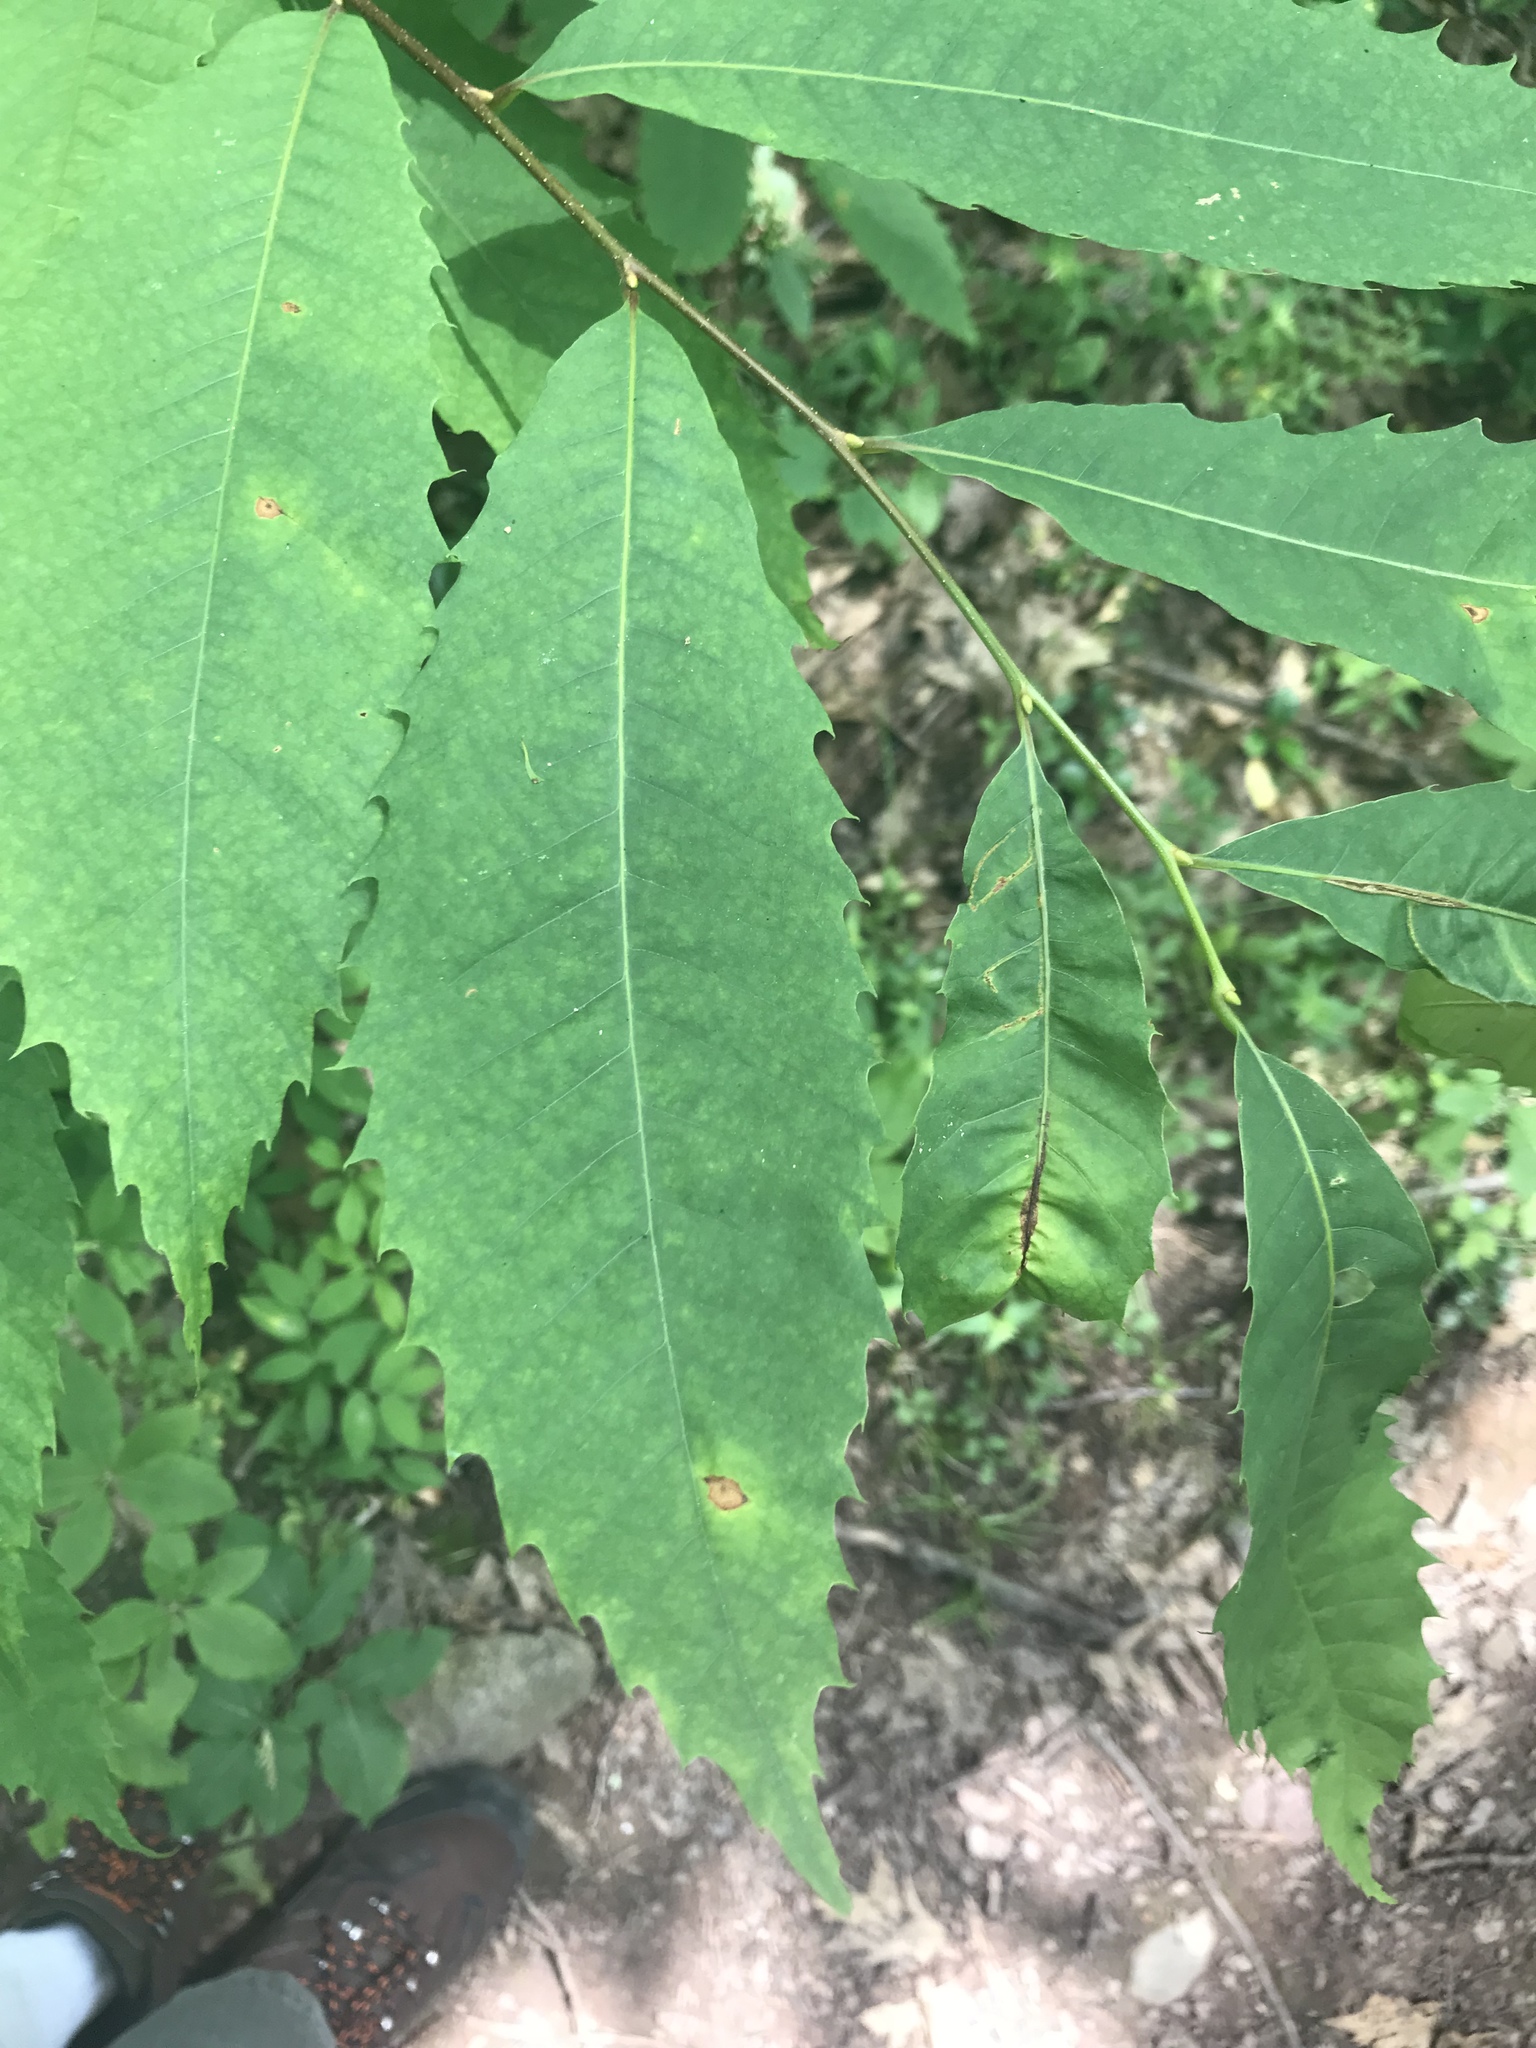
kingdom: Plantae
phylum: Tracheophyta
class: Magnoliopsida
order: Fagales
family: Fagaceae
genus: Castanea
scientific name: Castanea dentata
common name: American chestnut
